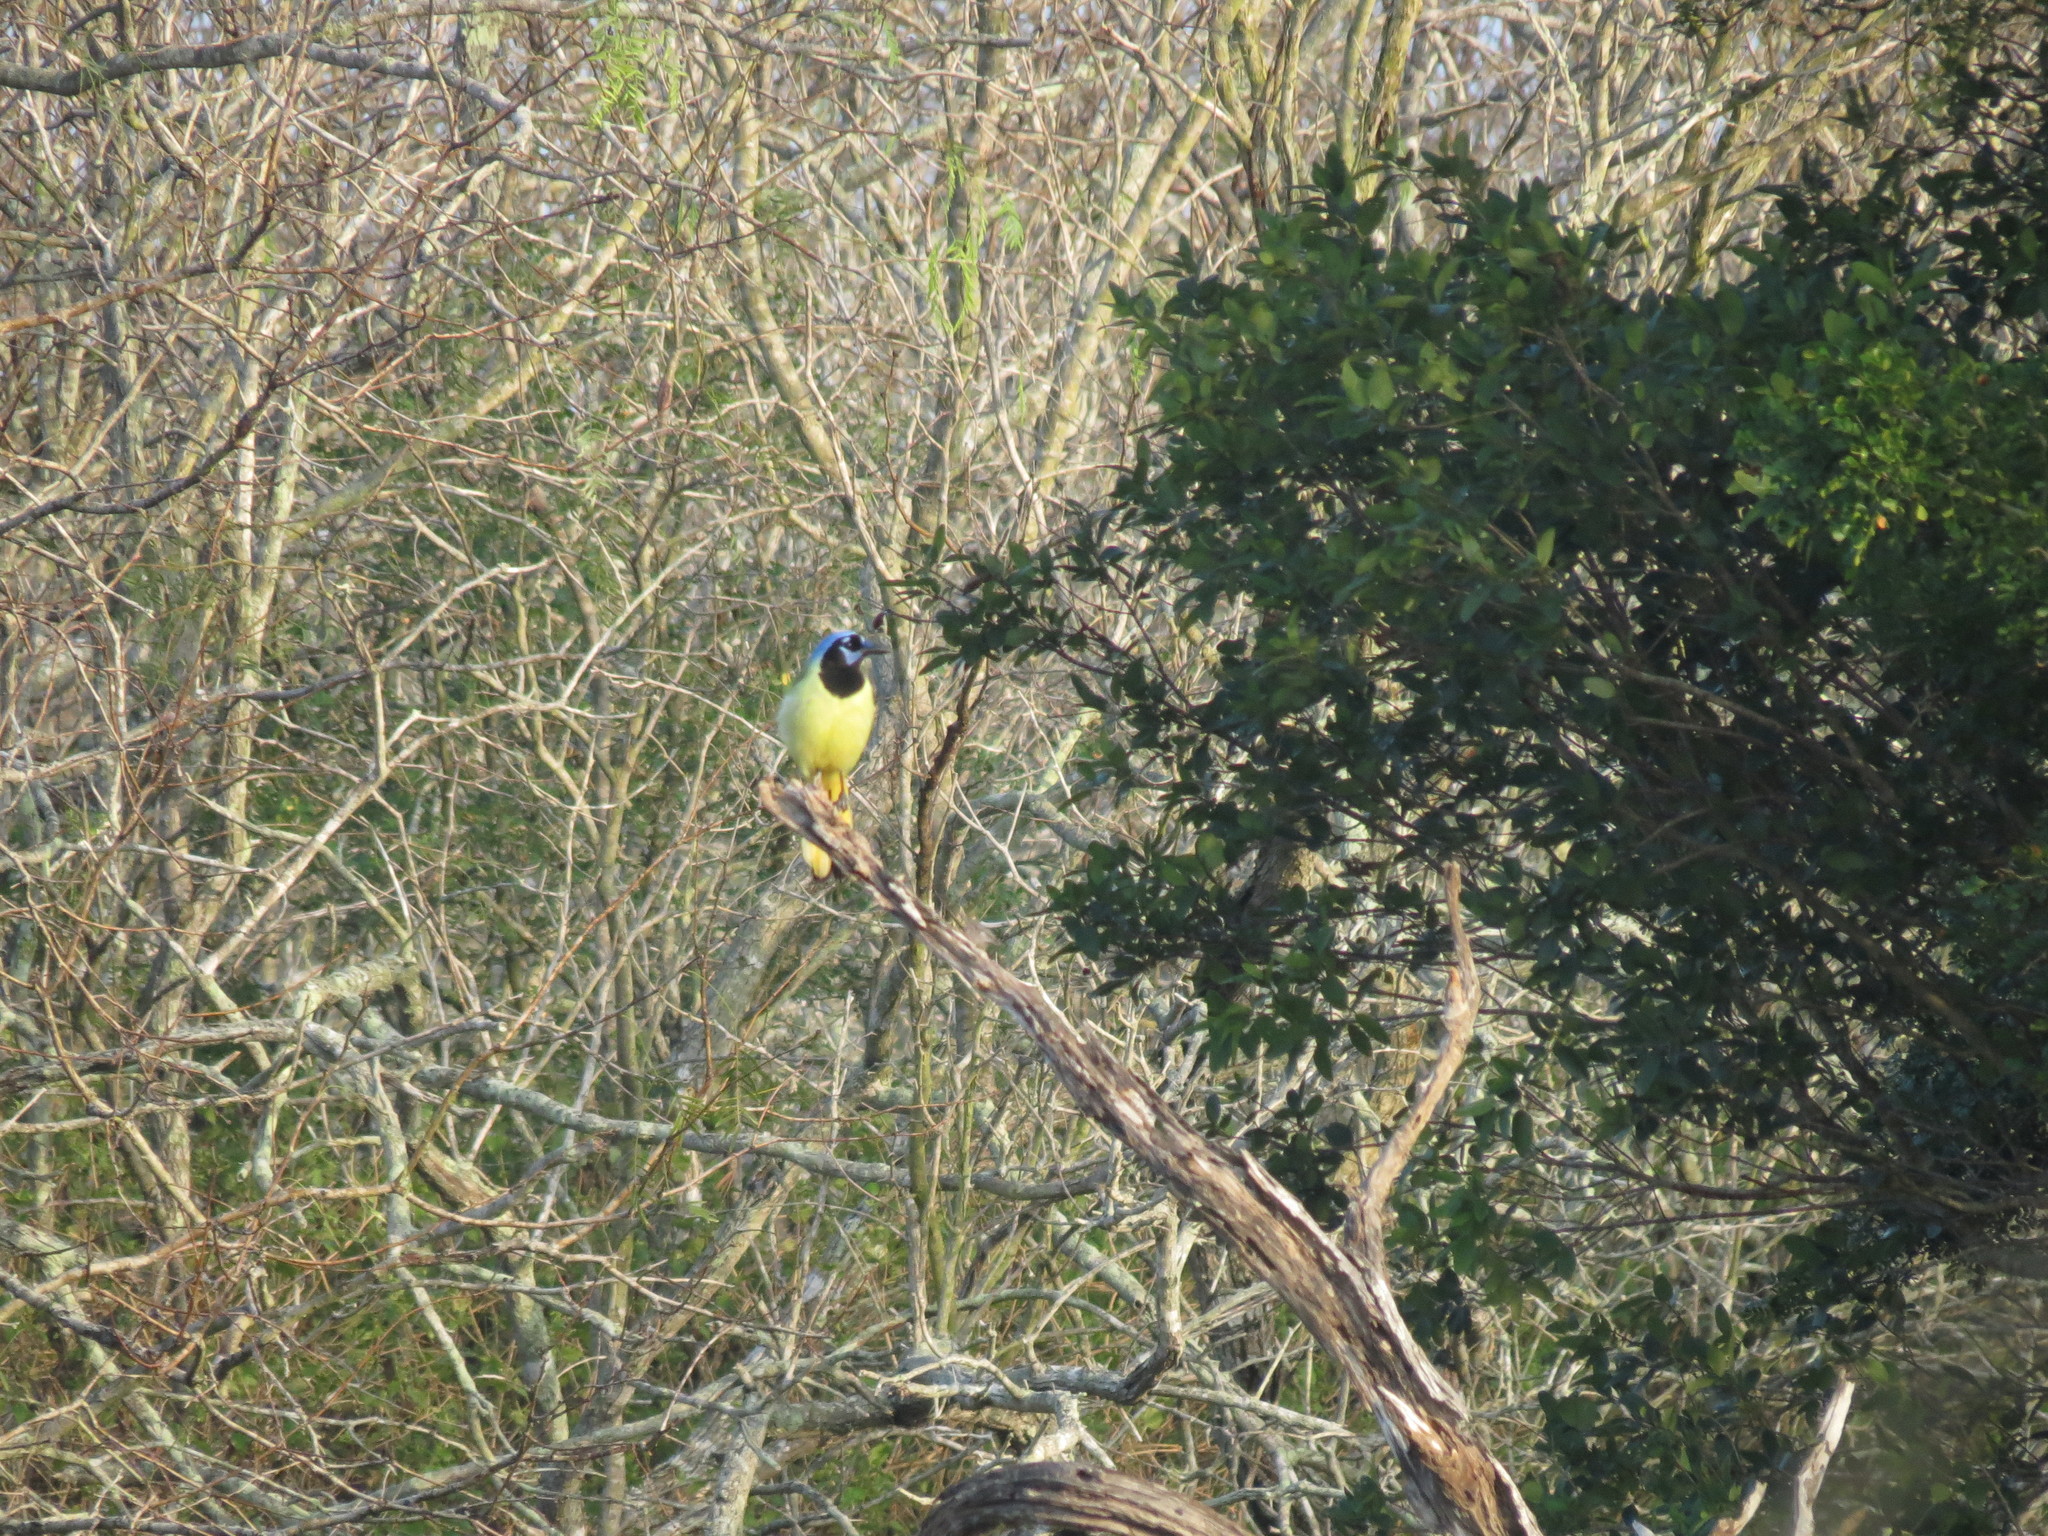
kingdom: Animalia
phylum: Chordata
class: Aves
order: Passeriformes
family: Corvidae
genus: Cyanocorax
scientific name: Cyanocorax yncas
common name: Green jay
